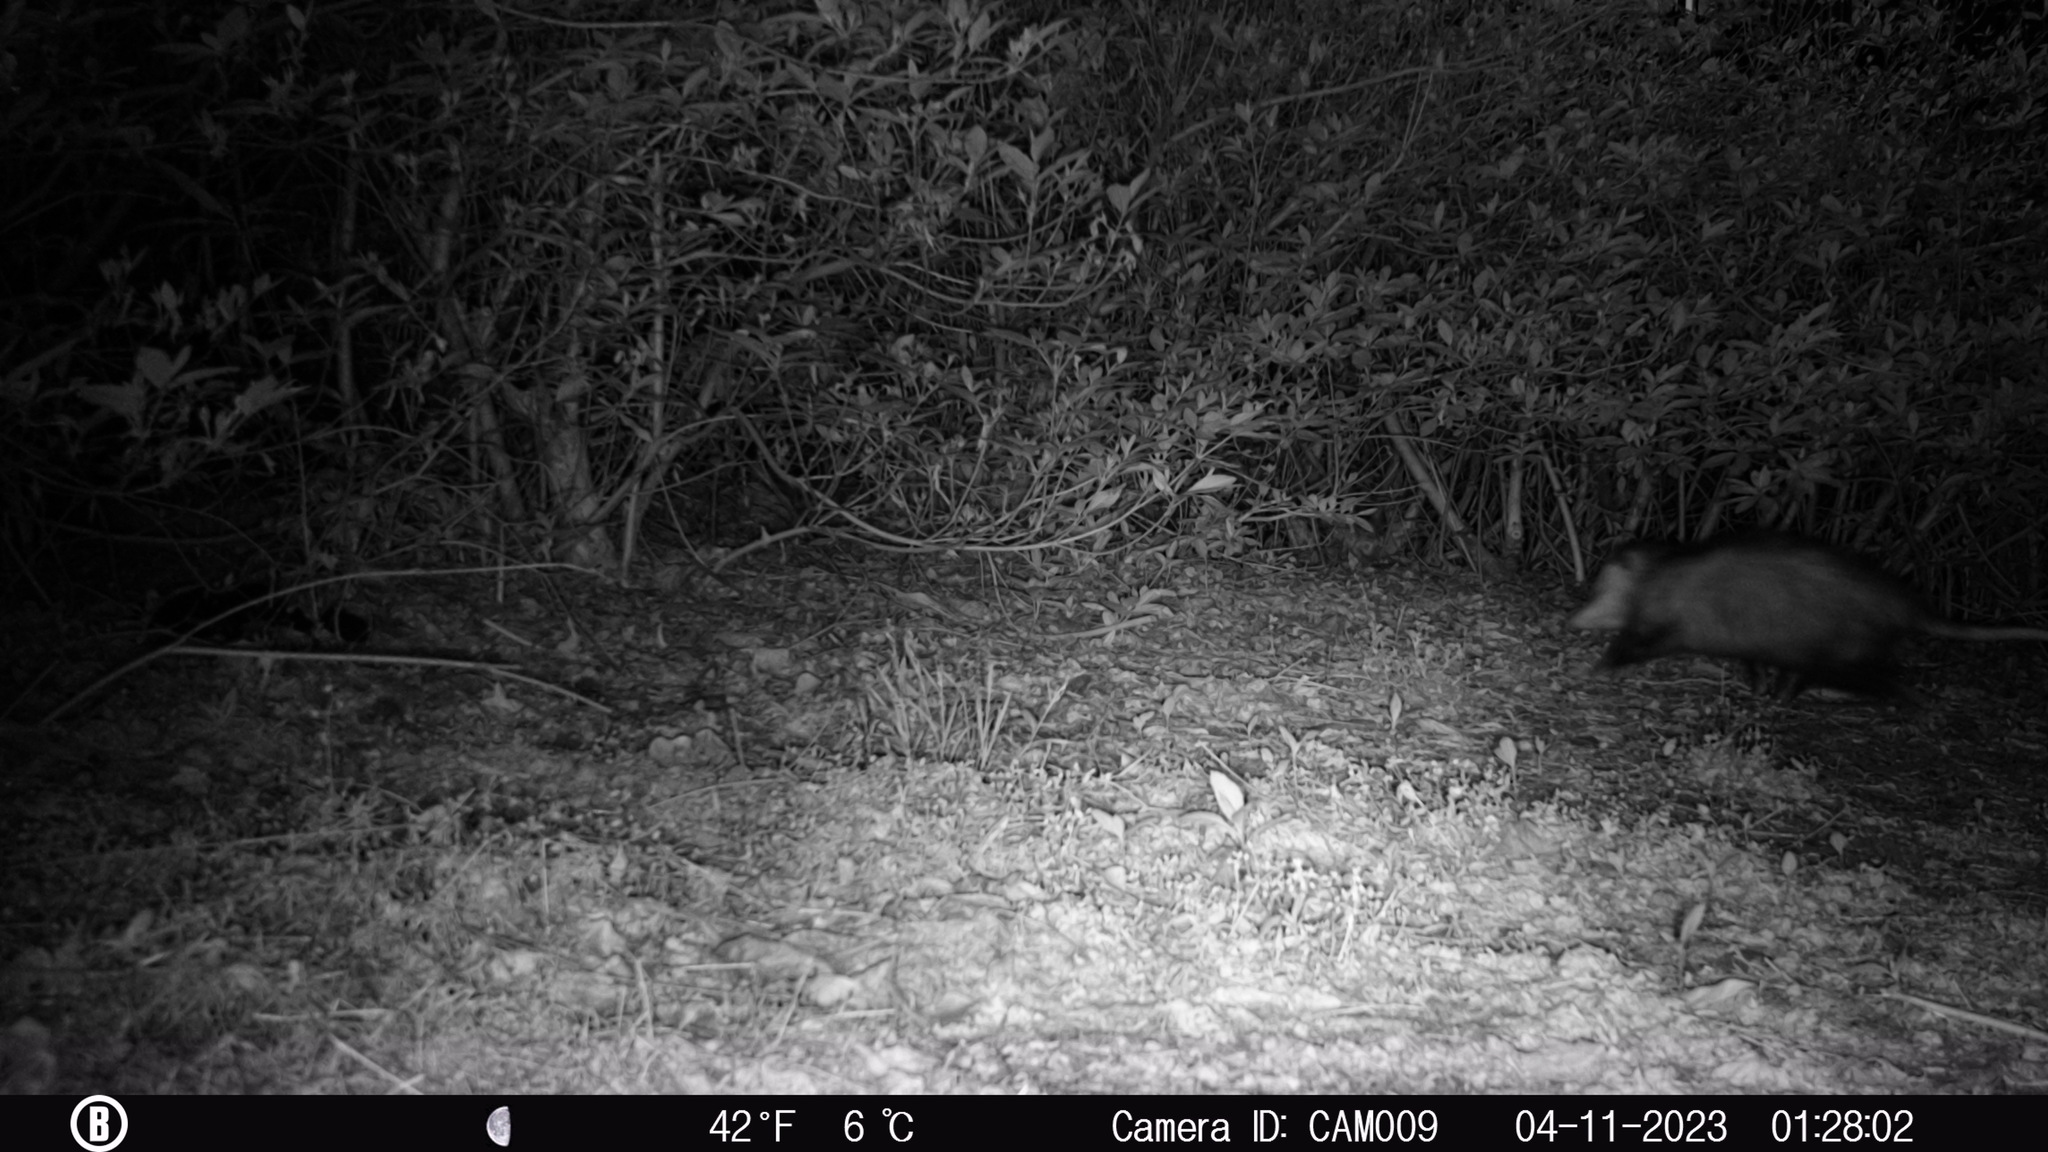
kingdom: Animalia
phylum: Chordata
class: Mammalia
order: Didelphimorphia
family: Didelphidae
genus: Didelphis
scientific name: Didelphis virginiana
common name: Virginia opossum
